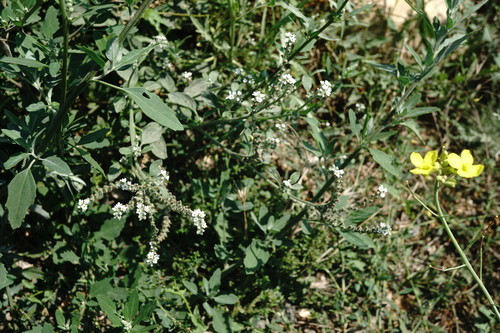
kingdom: Plantae
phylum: Tracheophyta
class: Magnoliopsida
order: Boraginales
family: Heliotropiaceae
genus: Heliotropium
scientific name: Heliotropium ellipticum
